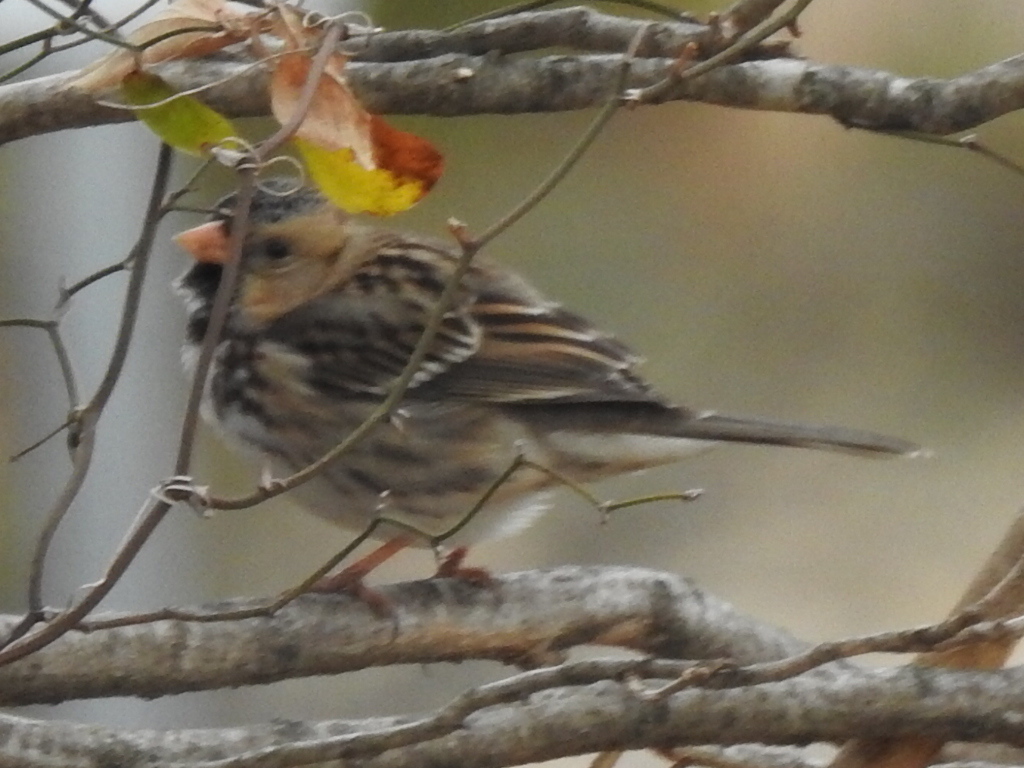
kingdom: Animalia
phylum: Chordata
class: Aves
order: Passeriformes
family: Passerellidae
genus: Zonotrichia
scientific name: Zonotrichia querula
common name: Harris's sparrow
